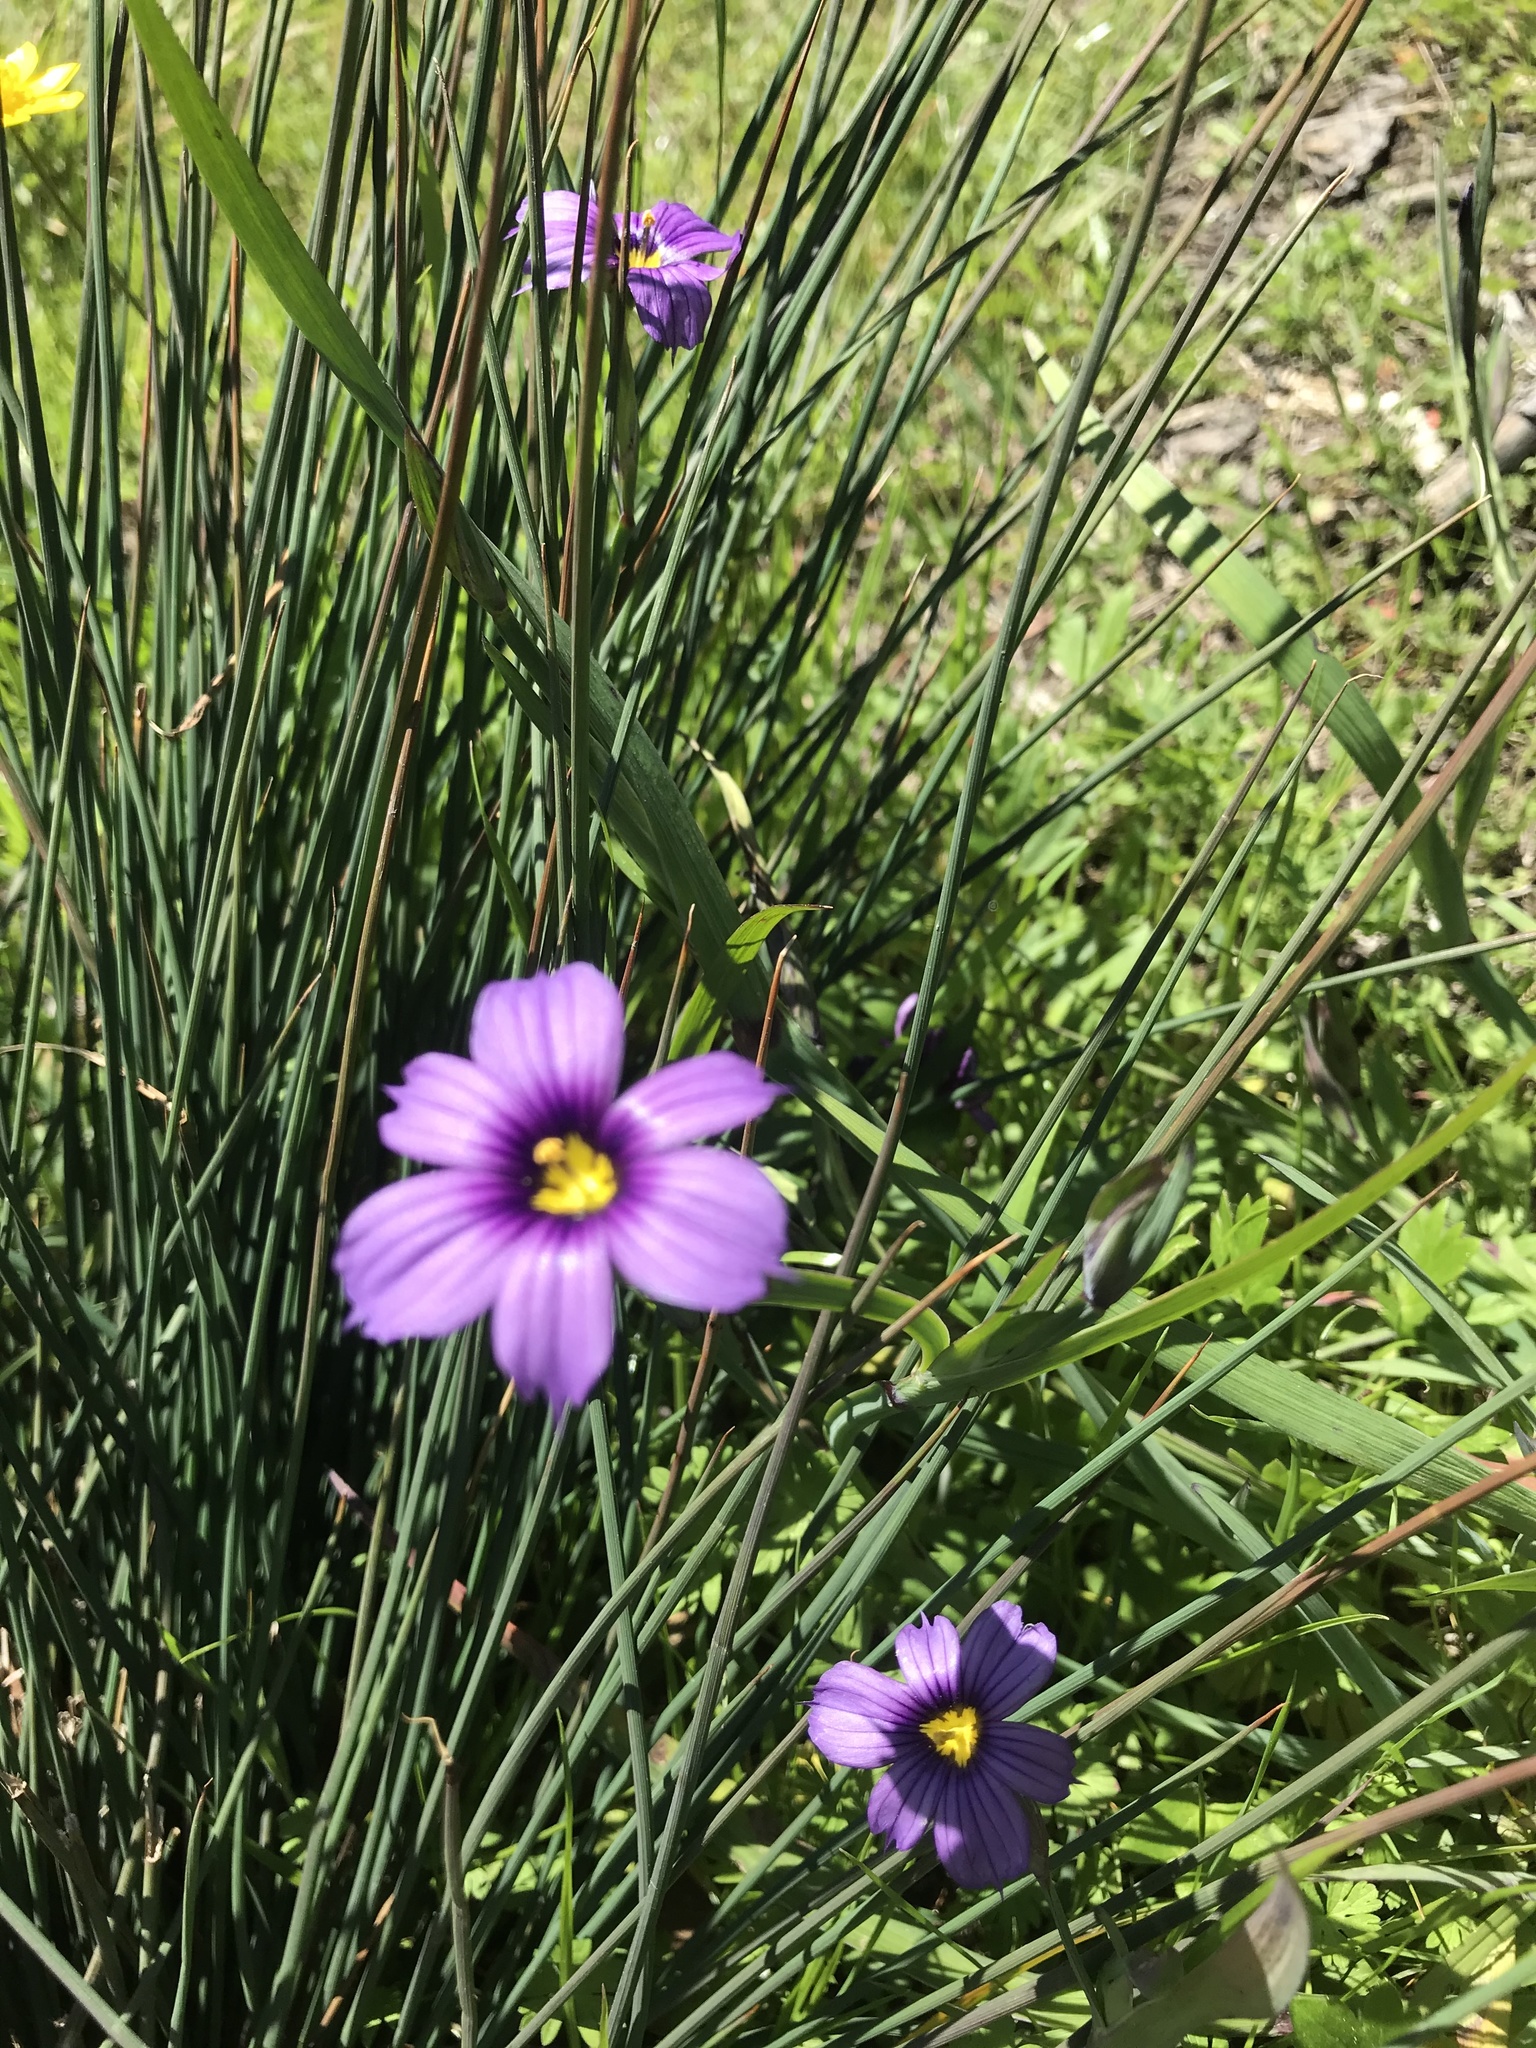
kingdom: Plantae
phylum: Tracheophyta
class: Liliopsida
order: Asparagales
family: Iridaceae
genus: Sisyrinchium
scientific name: Sisyrinchium bellum
